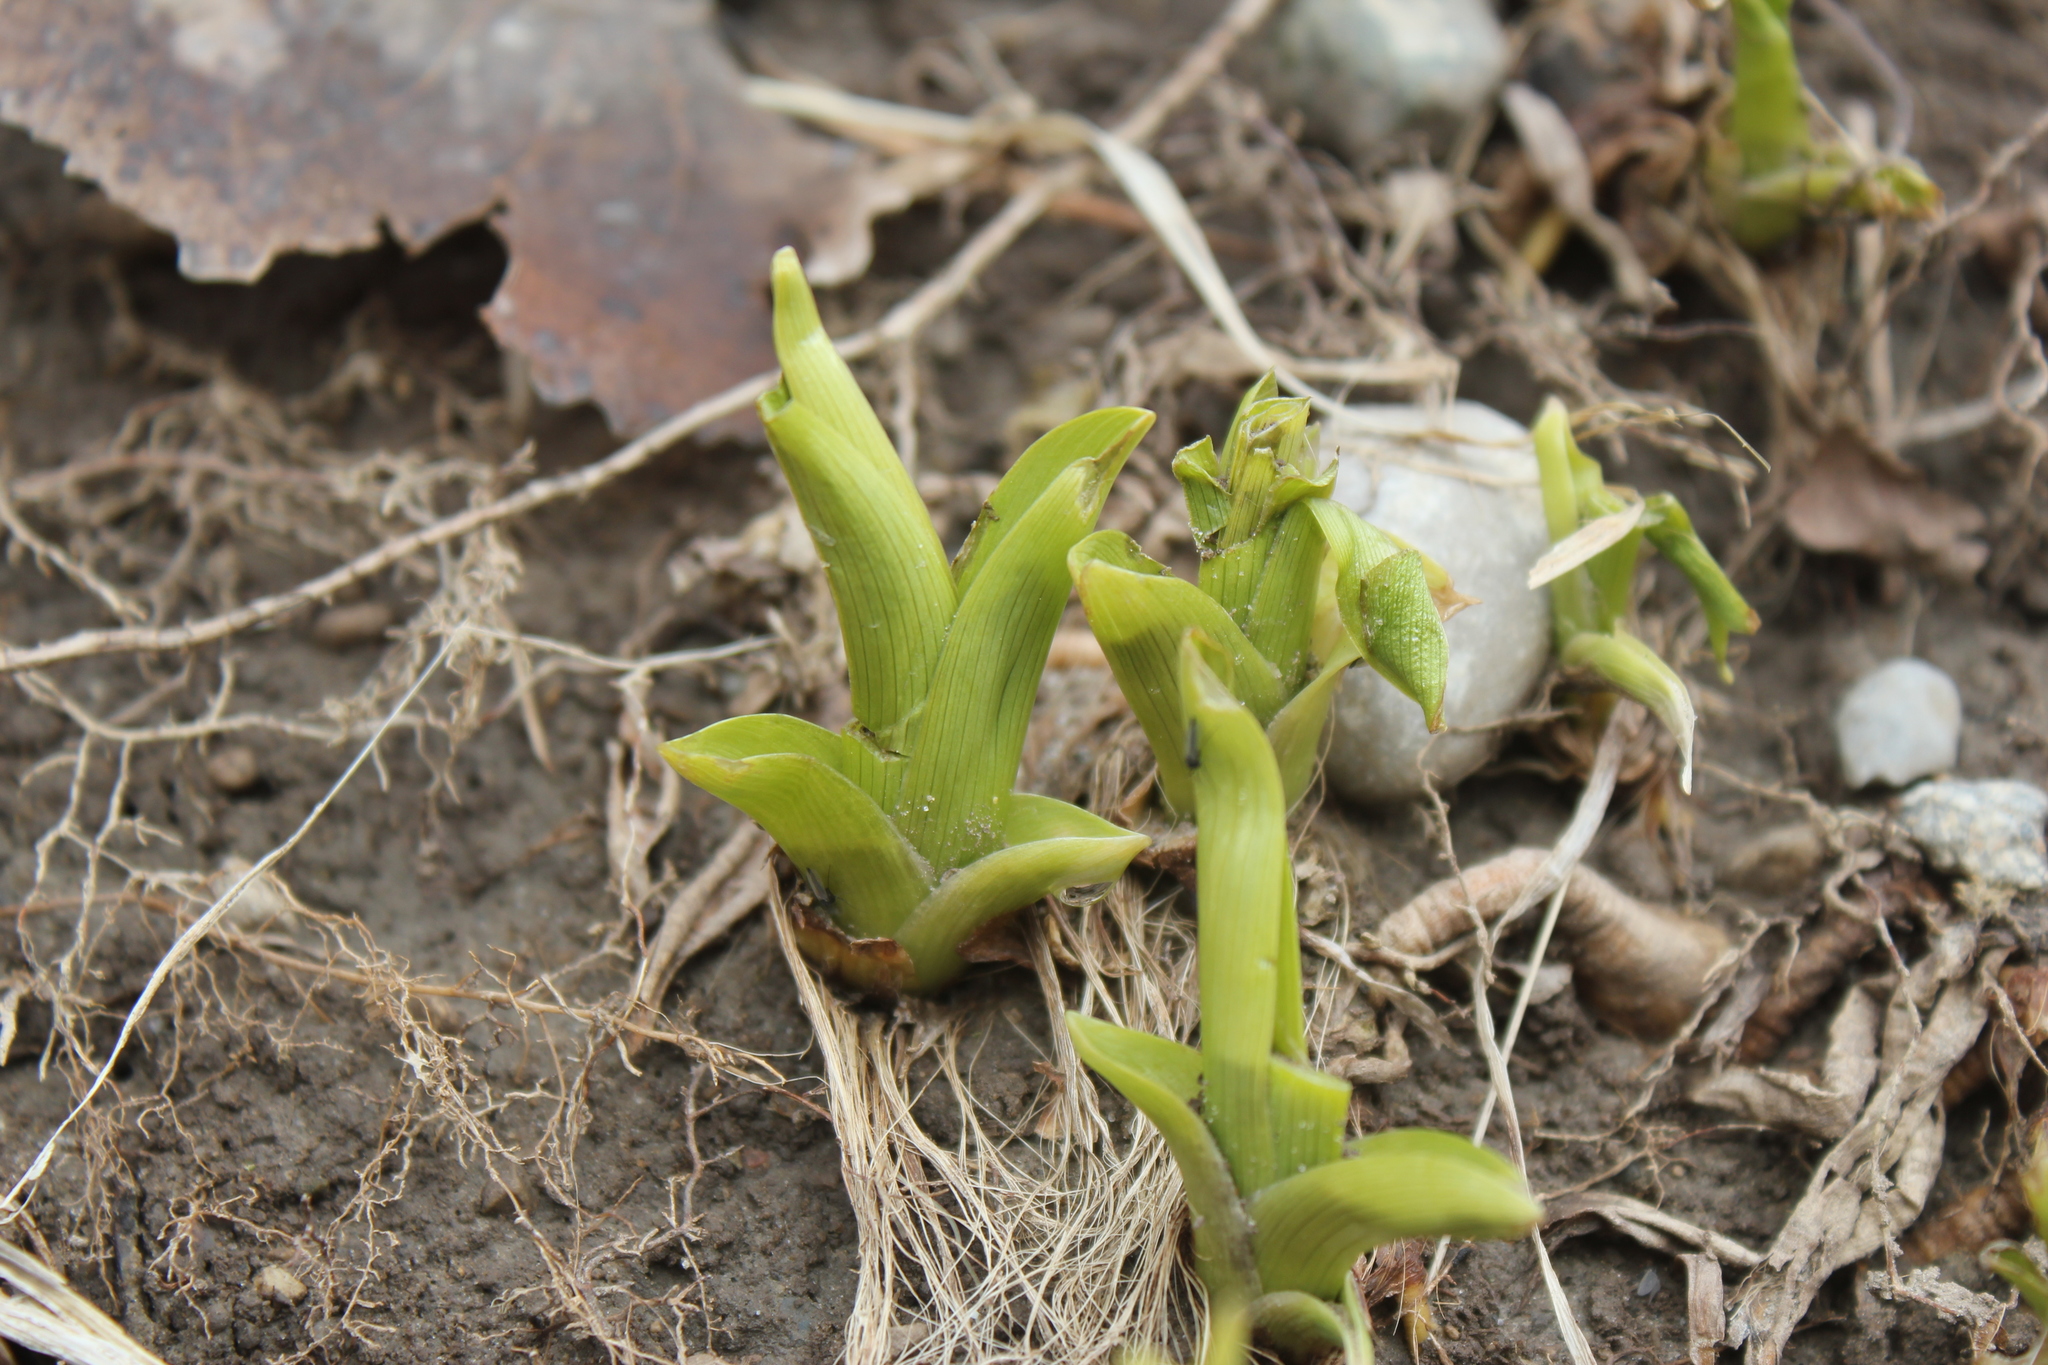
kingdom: Plantae
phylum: Tracheophyta
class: Liliopsida
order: Asparagales
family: Asphodelaceae
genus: Hemerocallis
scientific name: Hemerocallis fulva
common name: Orange day-lily
